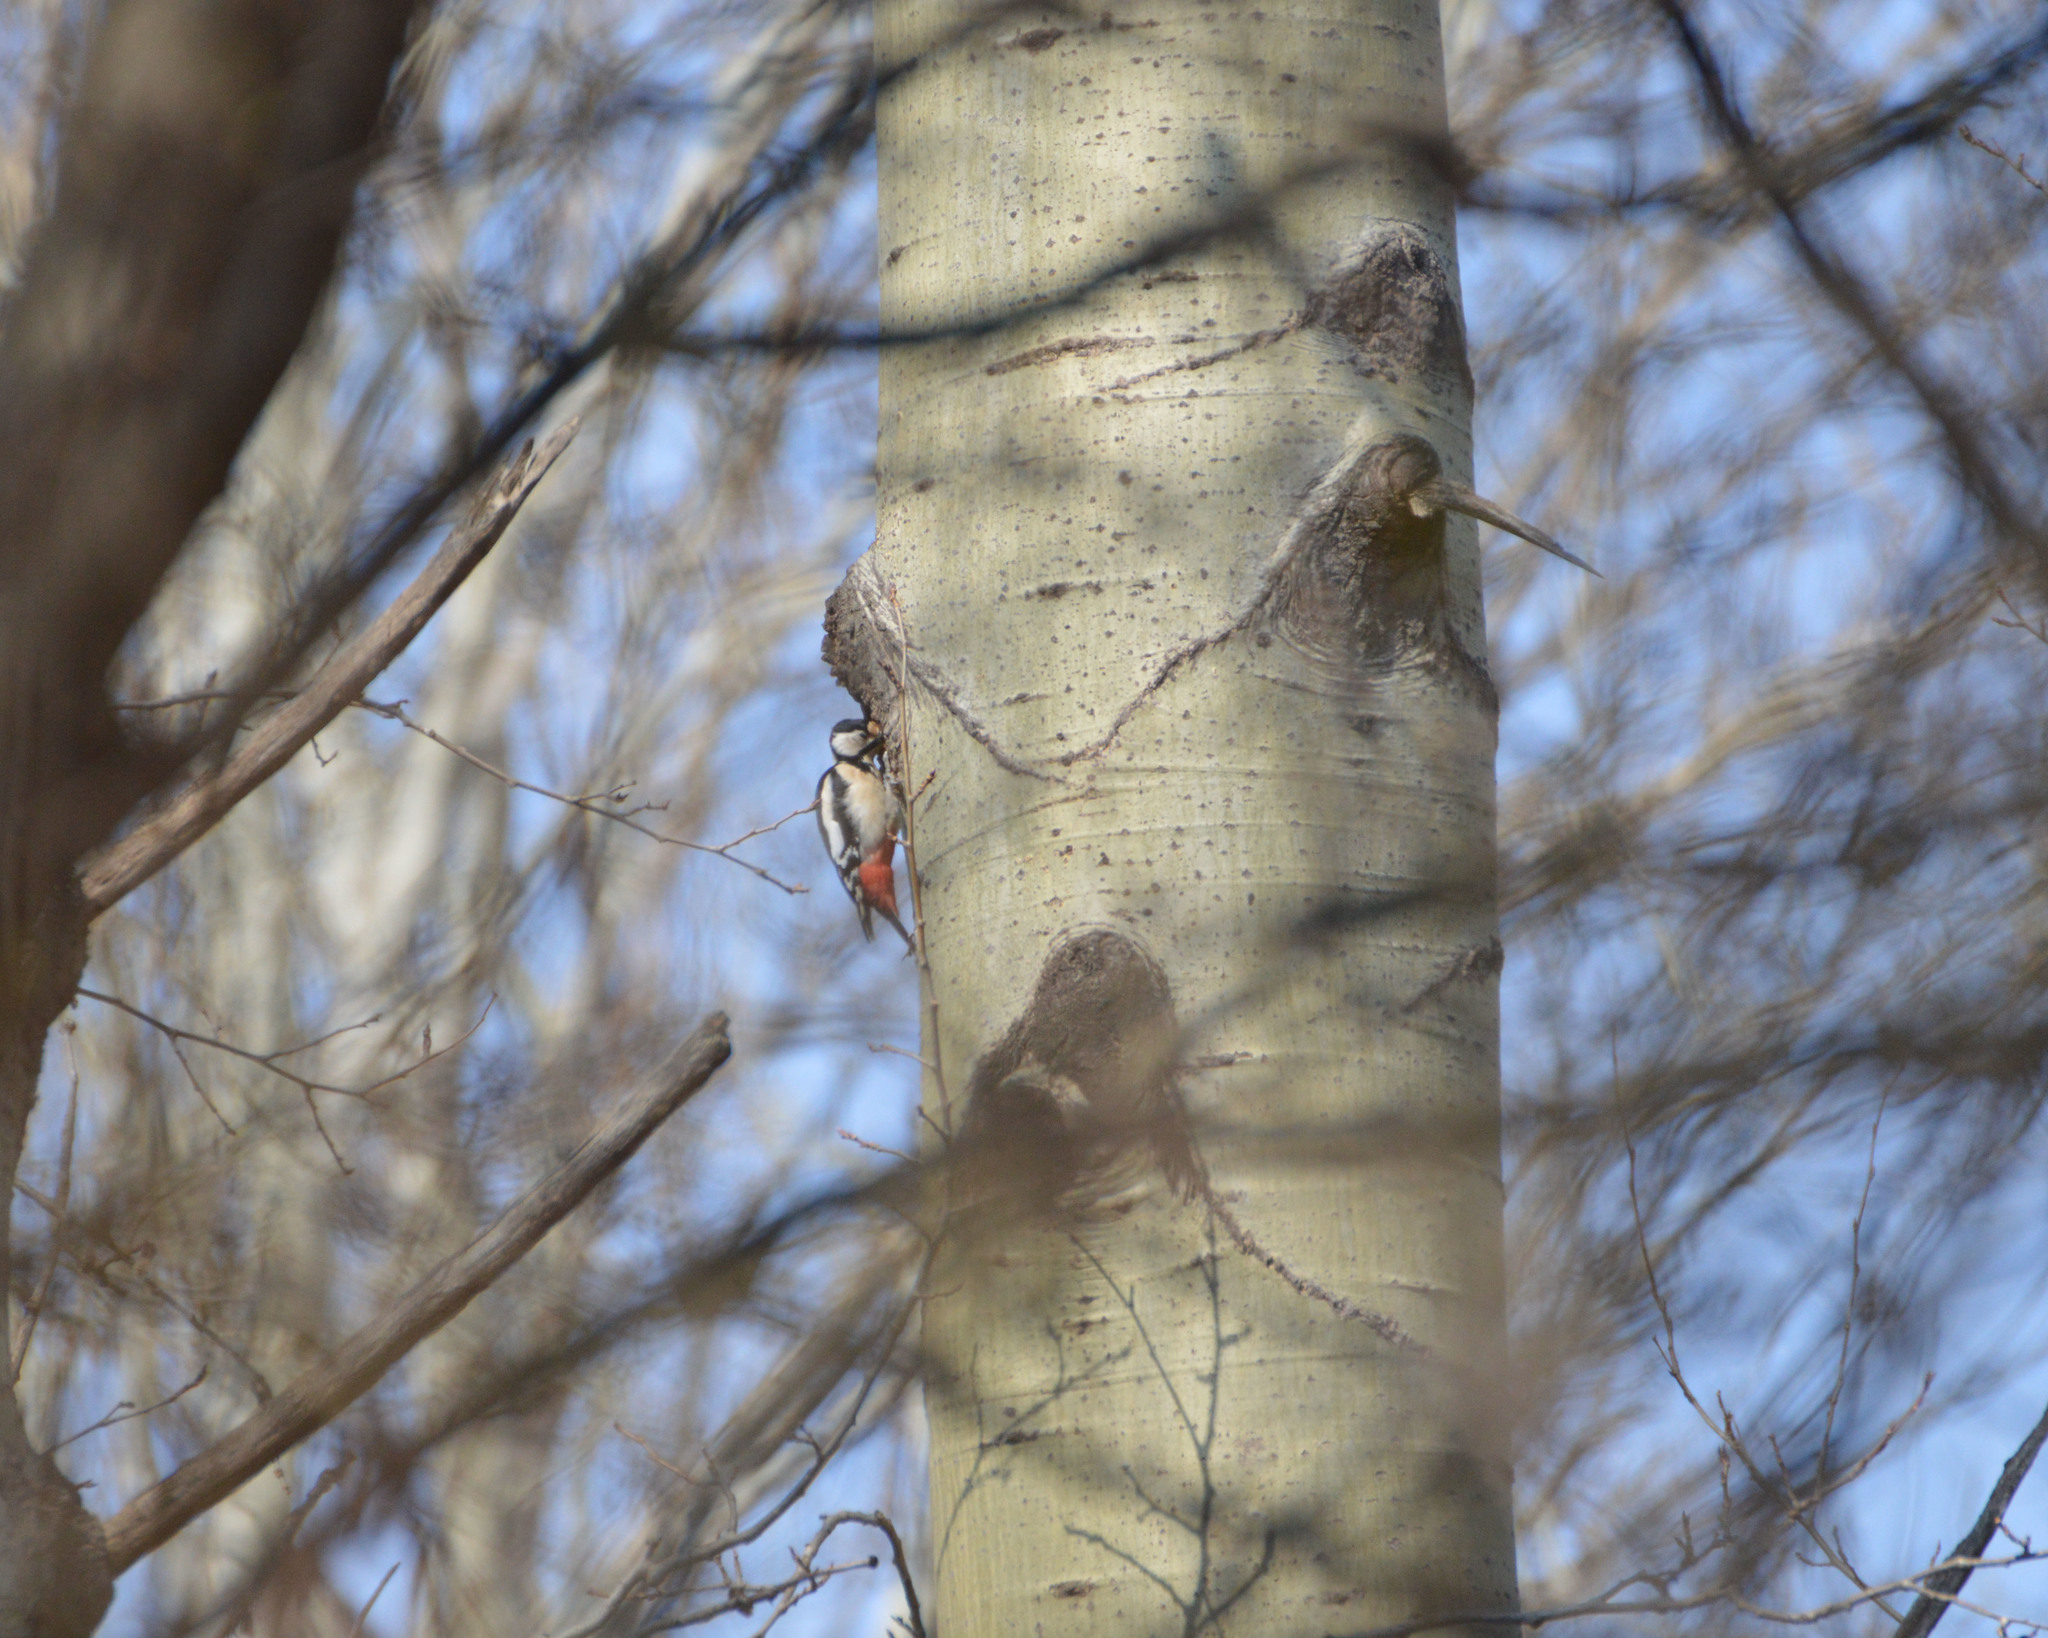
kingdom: Animalia
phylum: Chordata
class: Aves
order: Piciformes
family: Picidae
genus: Dendrocopos
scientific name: Dendrocopos major
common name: Great spotted woodpecker
